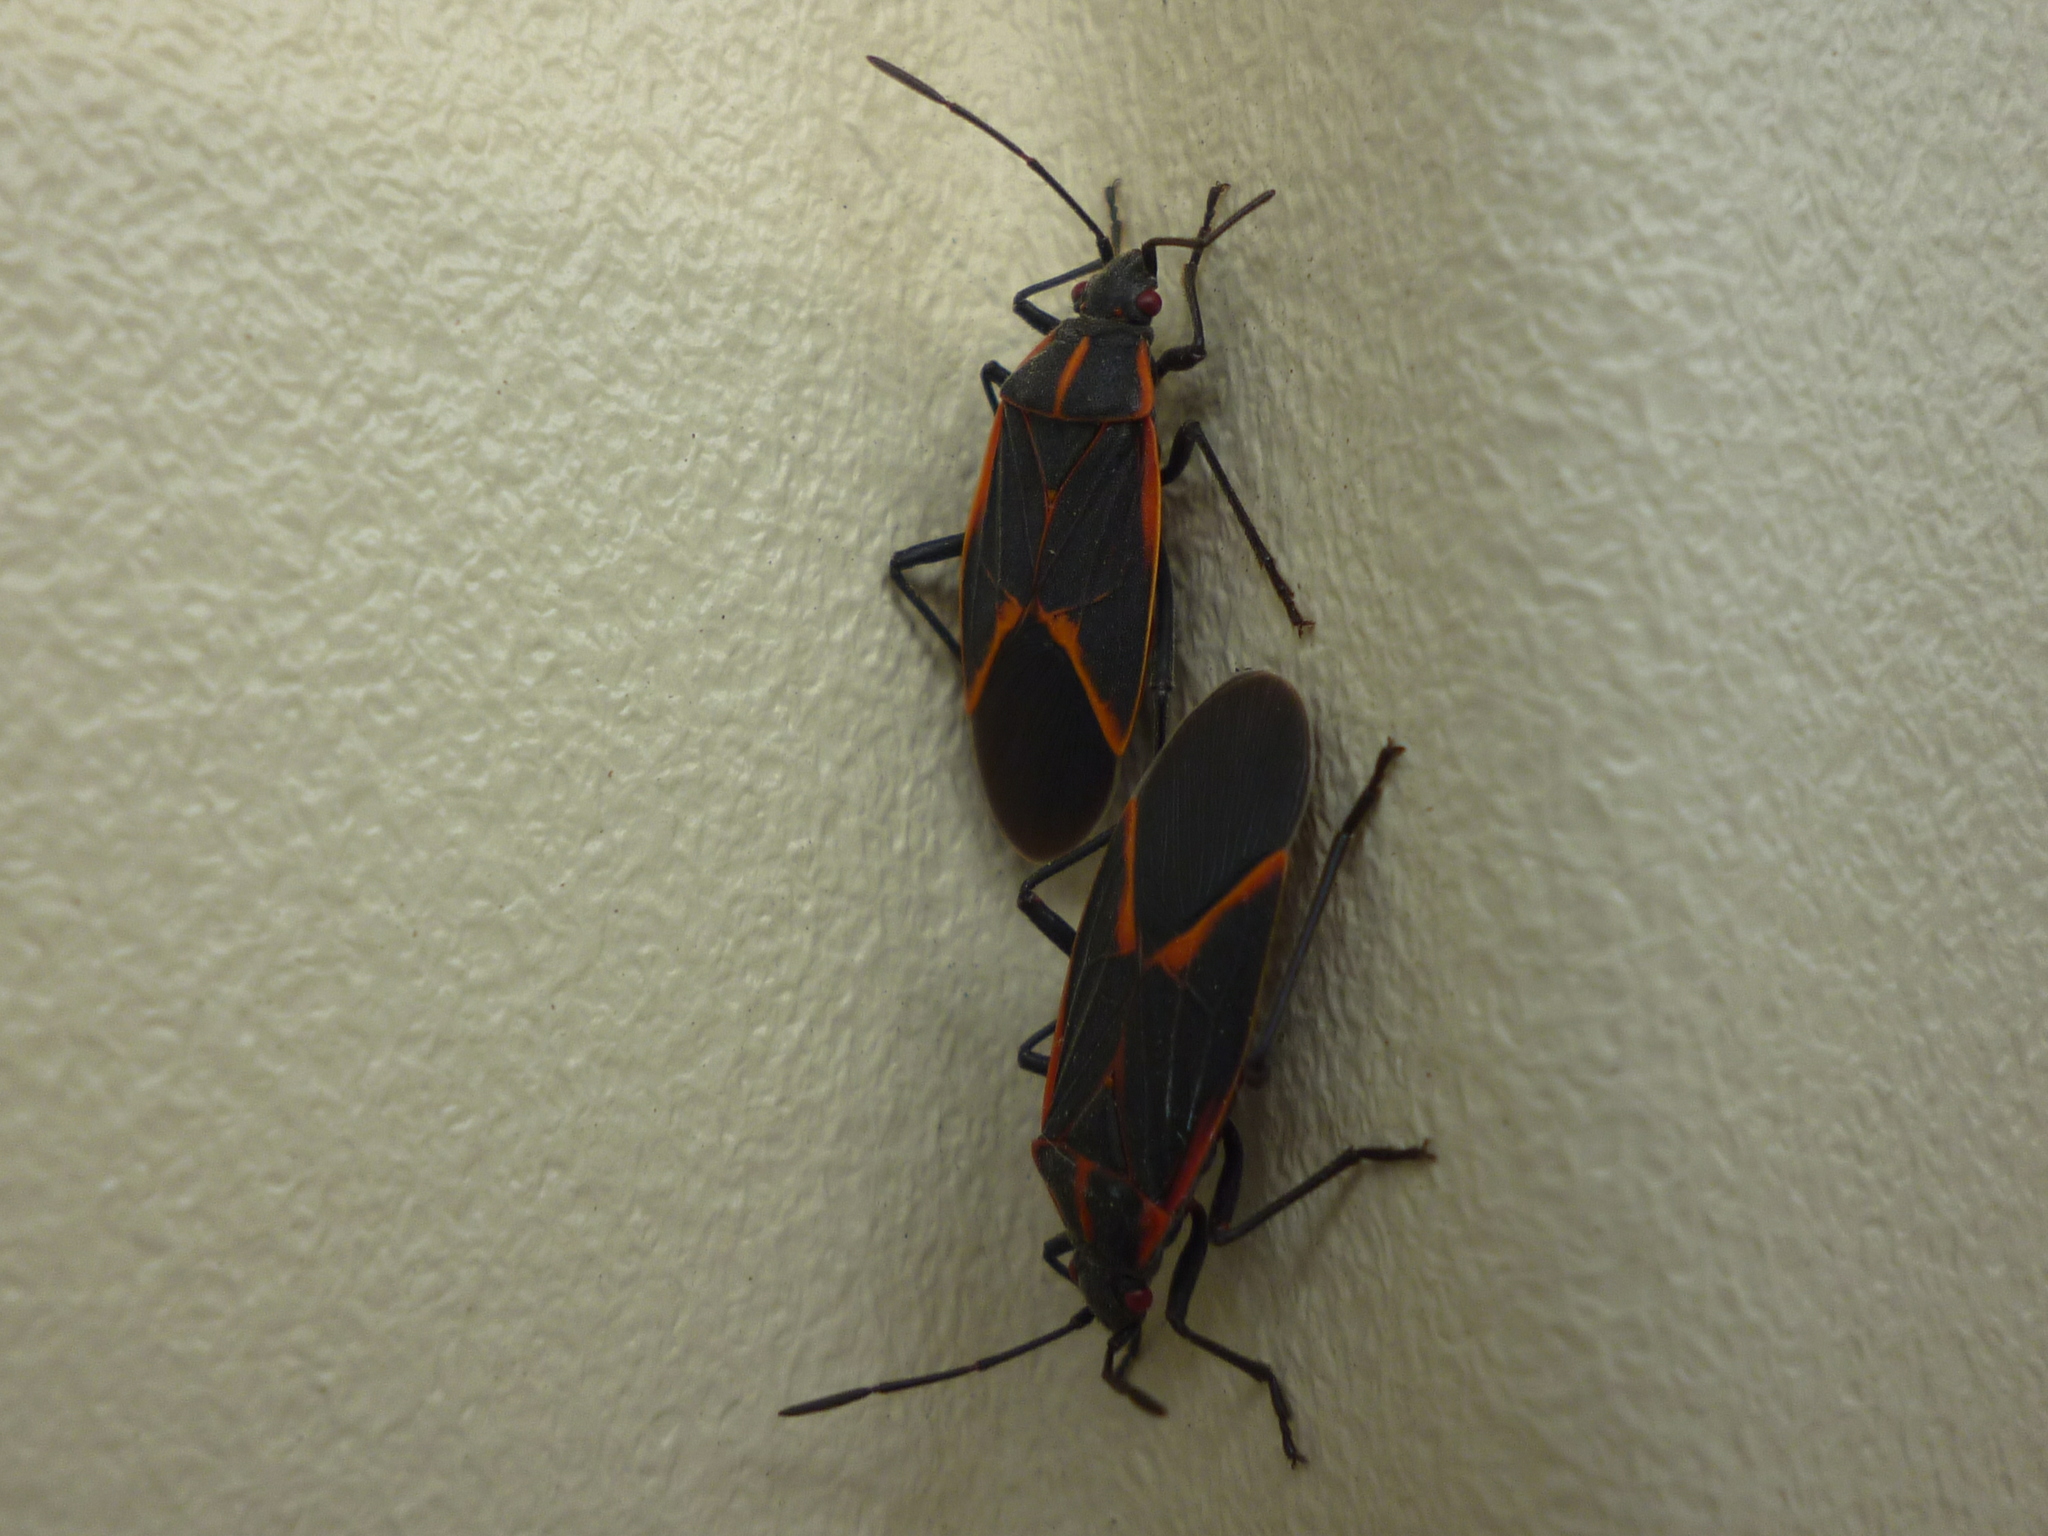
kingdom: Animalia
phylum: Arthropoda
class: Insecta
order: Hemiptera
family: Rhopalidae
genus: Boisea
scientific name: Boisea trivittata
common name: Boxelder bug
